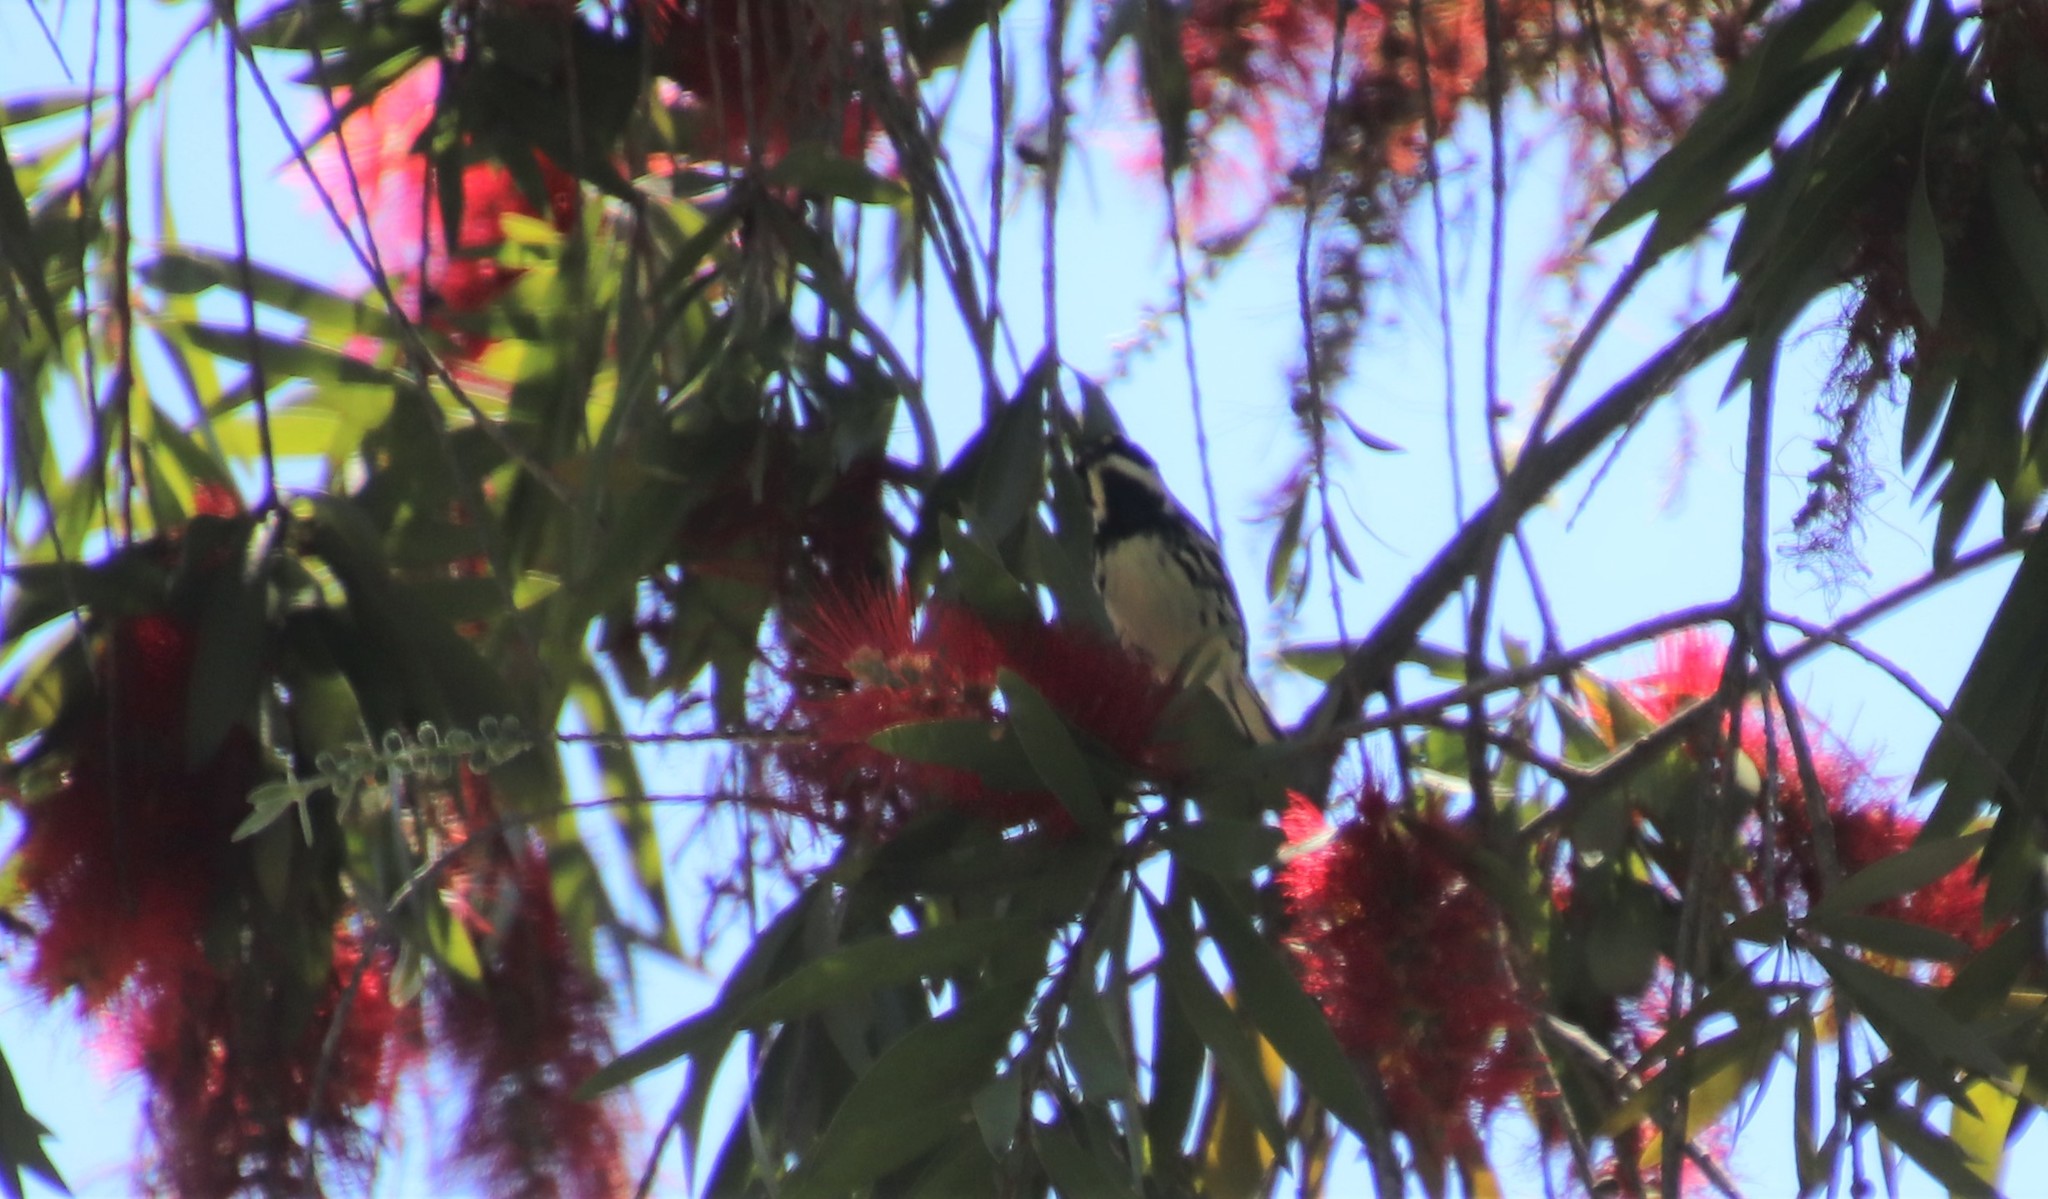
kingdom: Animalia
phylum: Chordata
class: Aves
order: Passeriformes
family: Parulidae
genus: Setophaga
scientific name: Setophaga nigrescens
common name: Black-throated gray warbler
